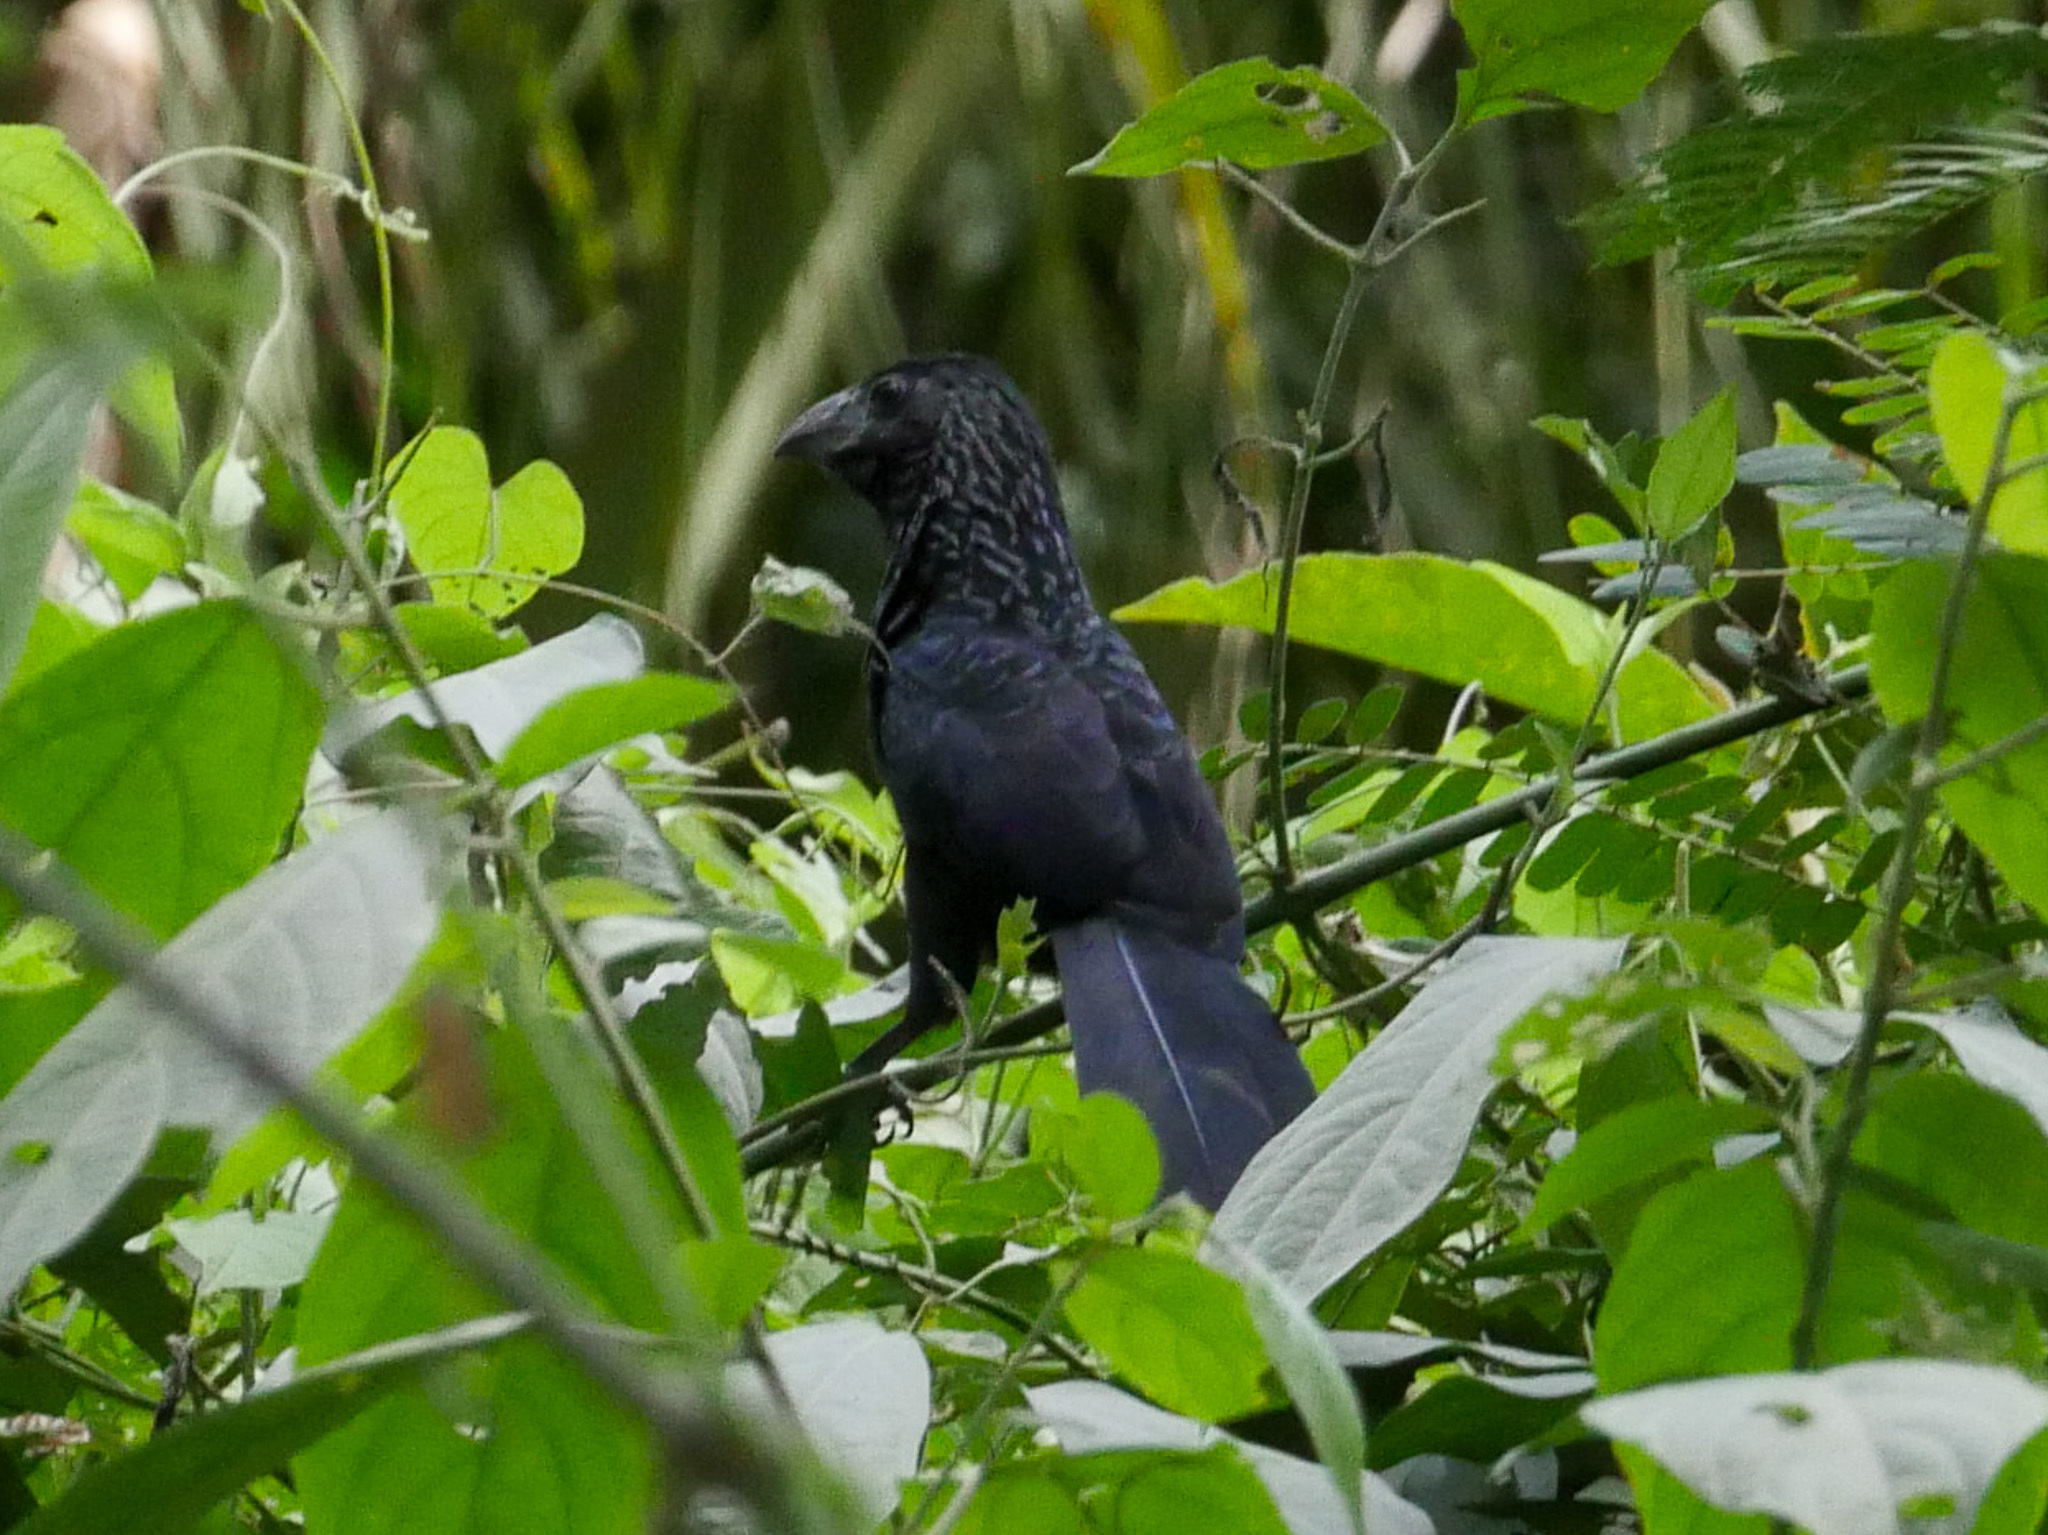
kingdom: Animalia
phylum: Chordata
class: Aves
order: Cuculiformes
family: Cuculidae
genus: Crotophaga
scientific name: Crotophaga sulcirostris
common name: Groove-billed ani
